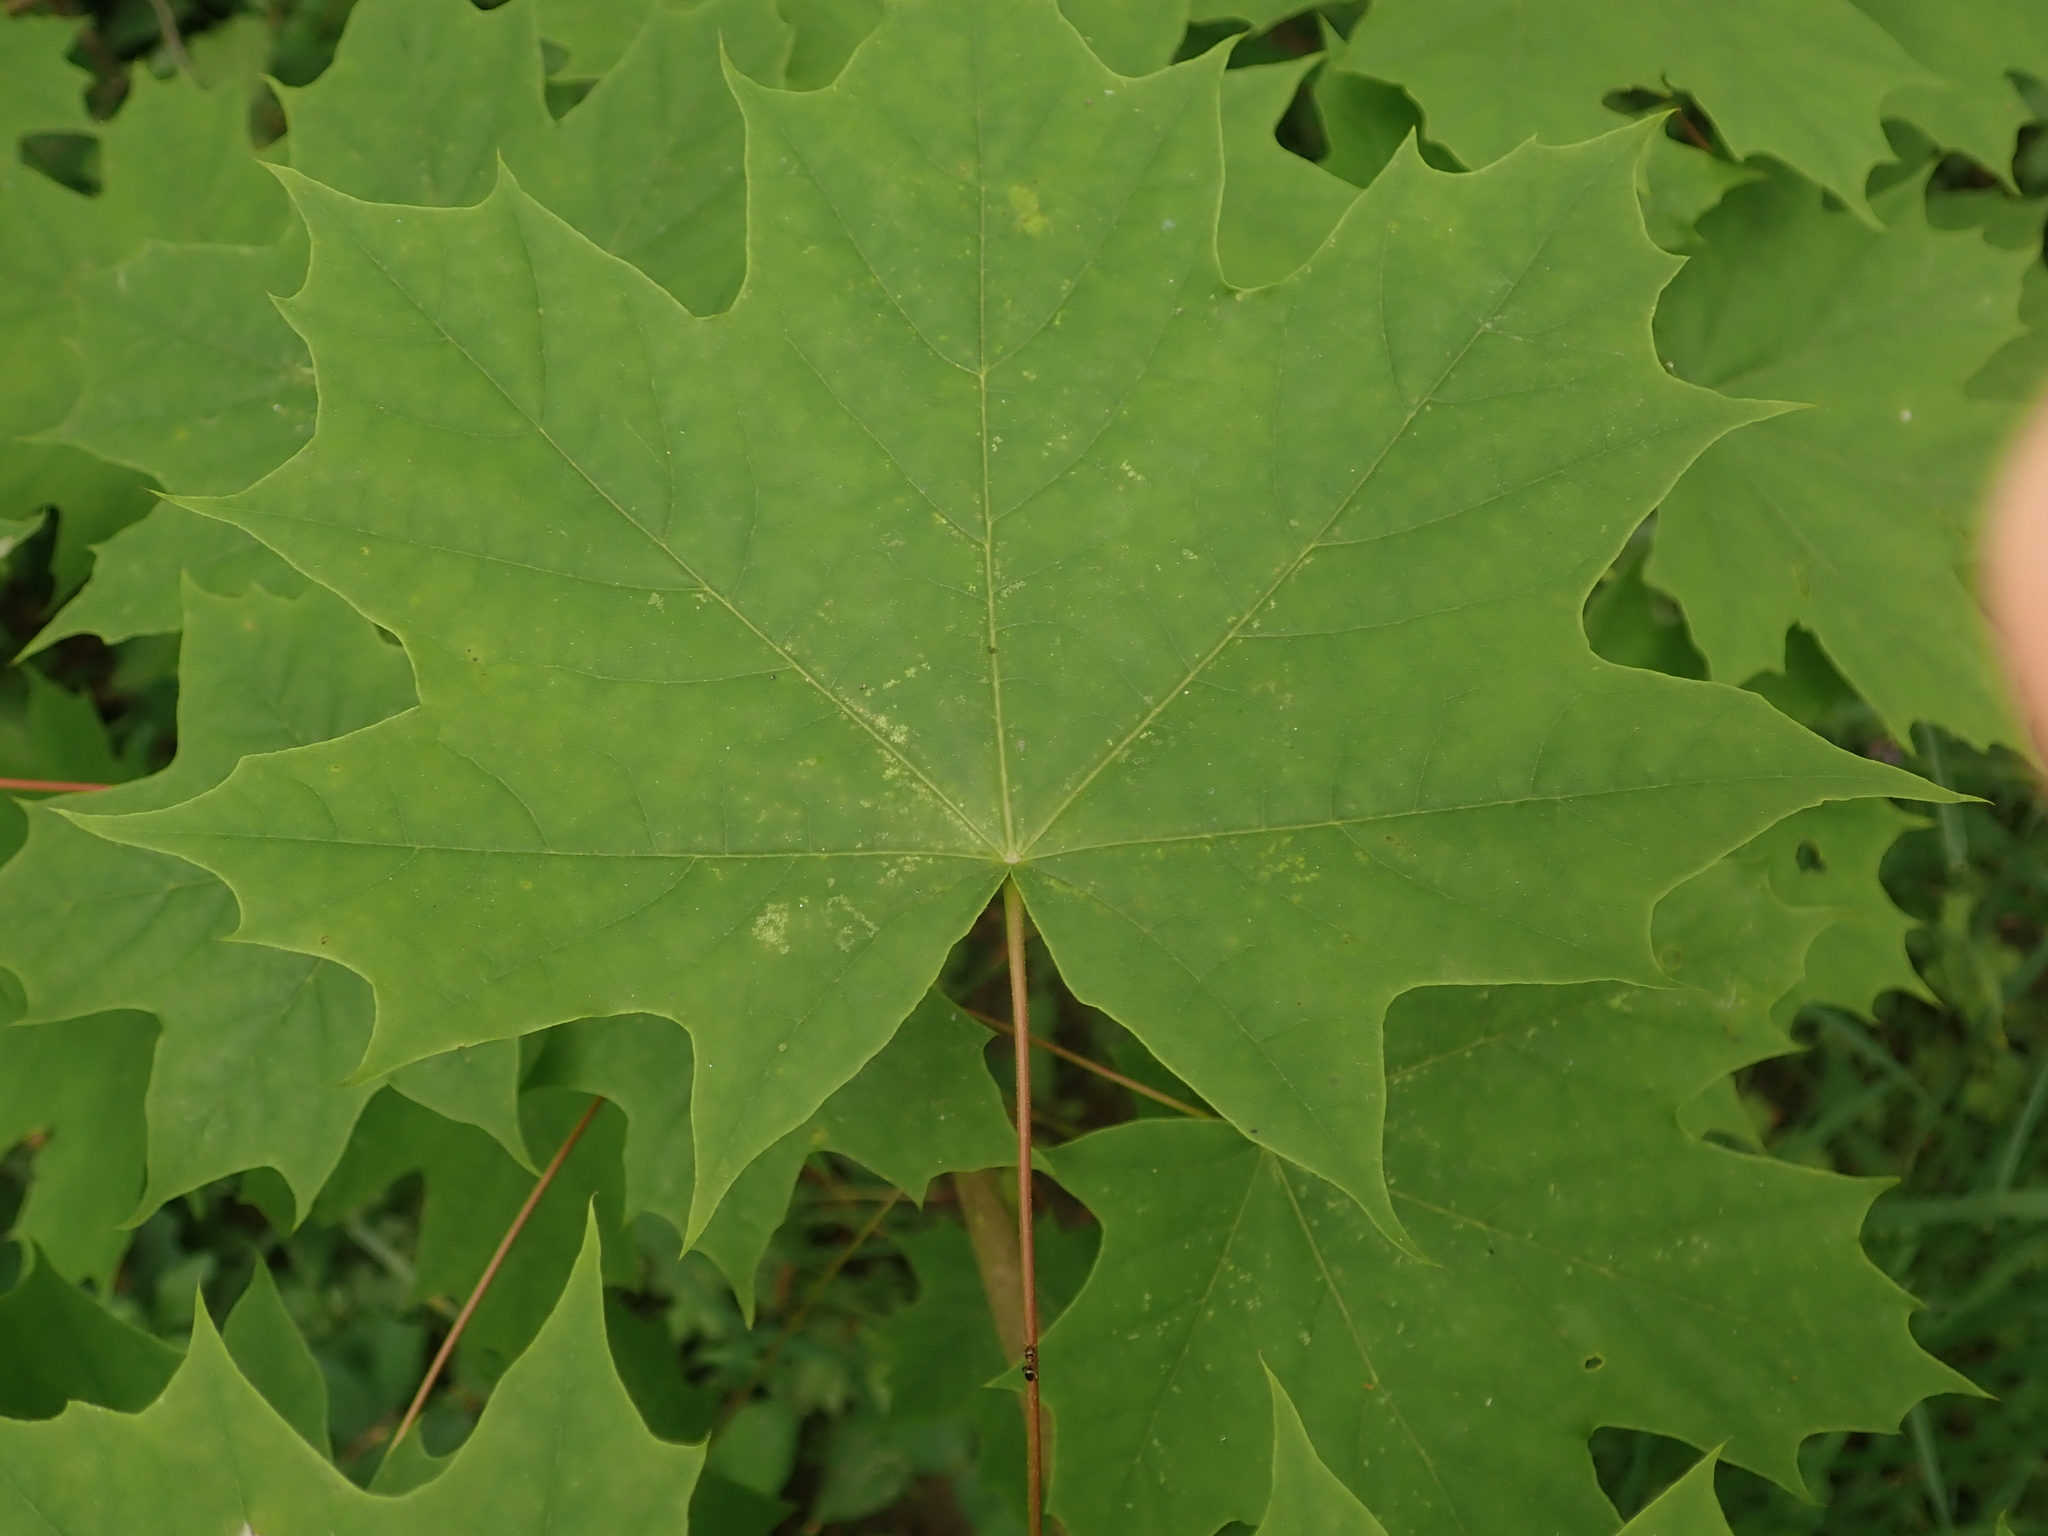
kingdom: Plantae
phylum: Tracheophyta
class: Magnoliopsida
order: Sapindales
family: Sapindaceae
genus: Acer
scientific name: Acer platanoides
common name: Norway maple
